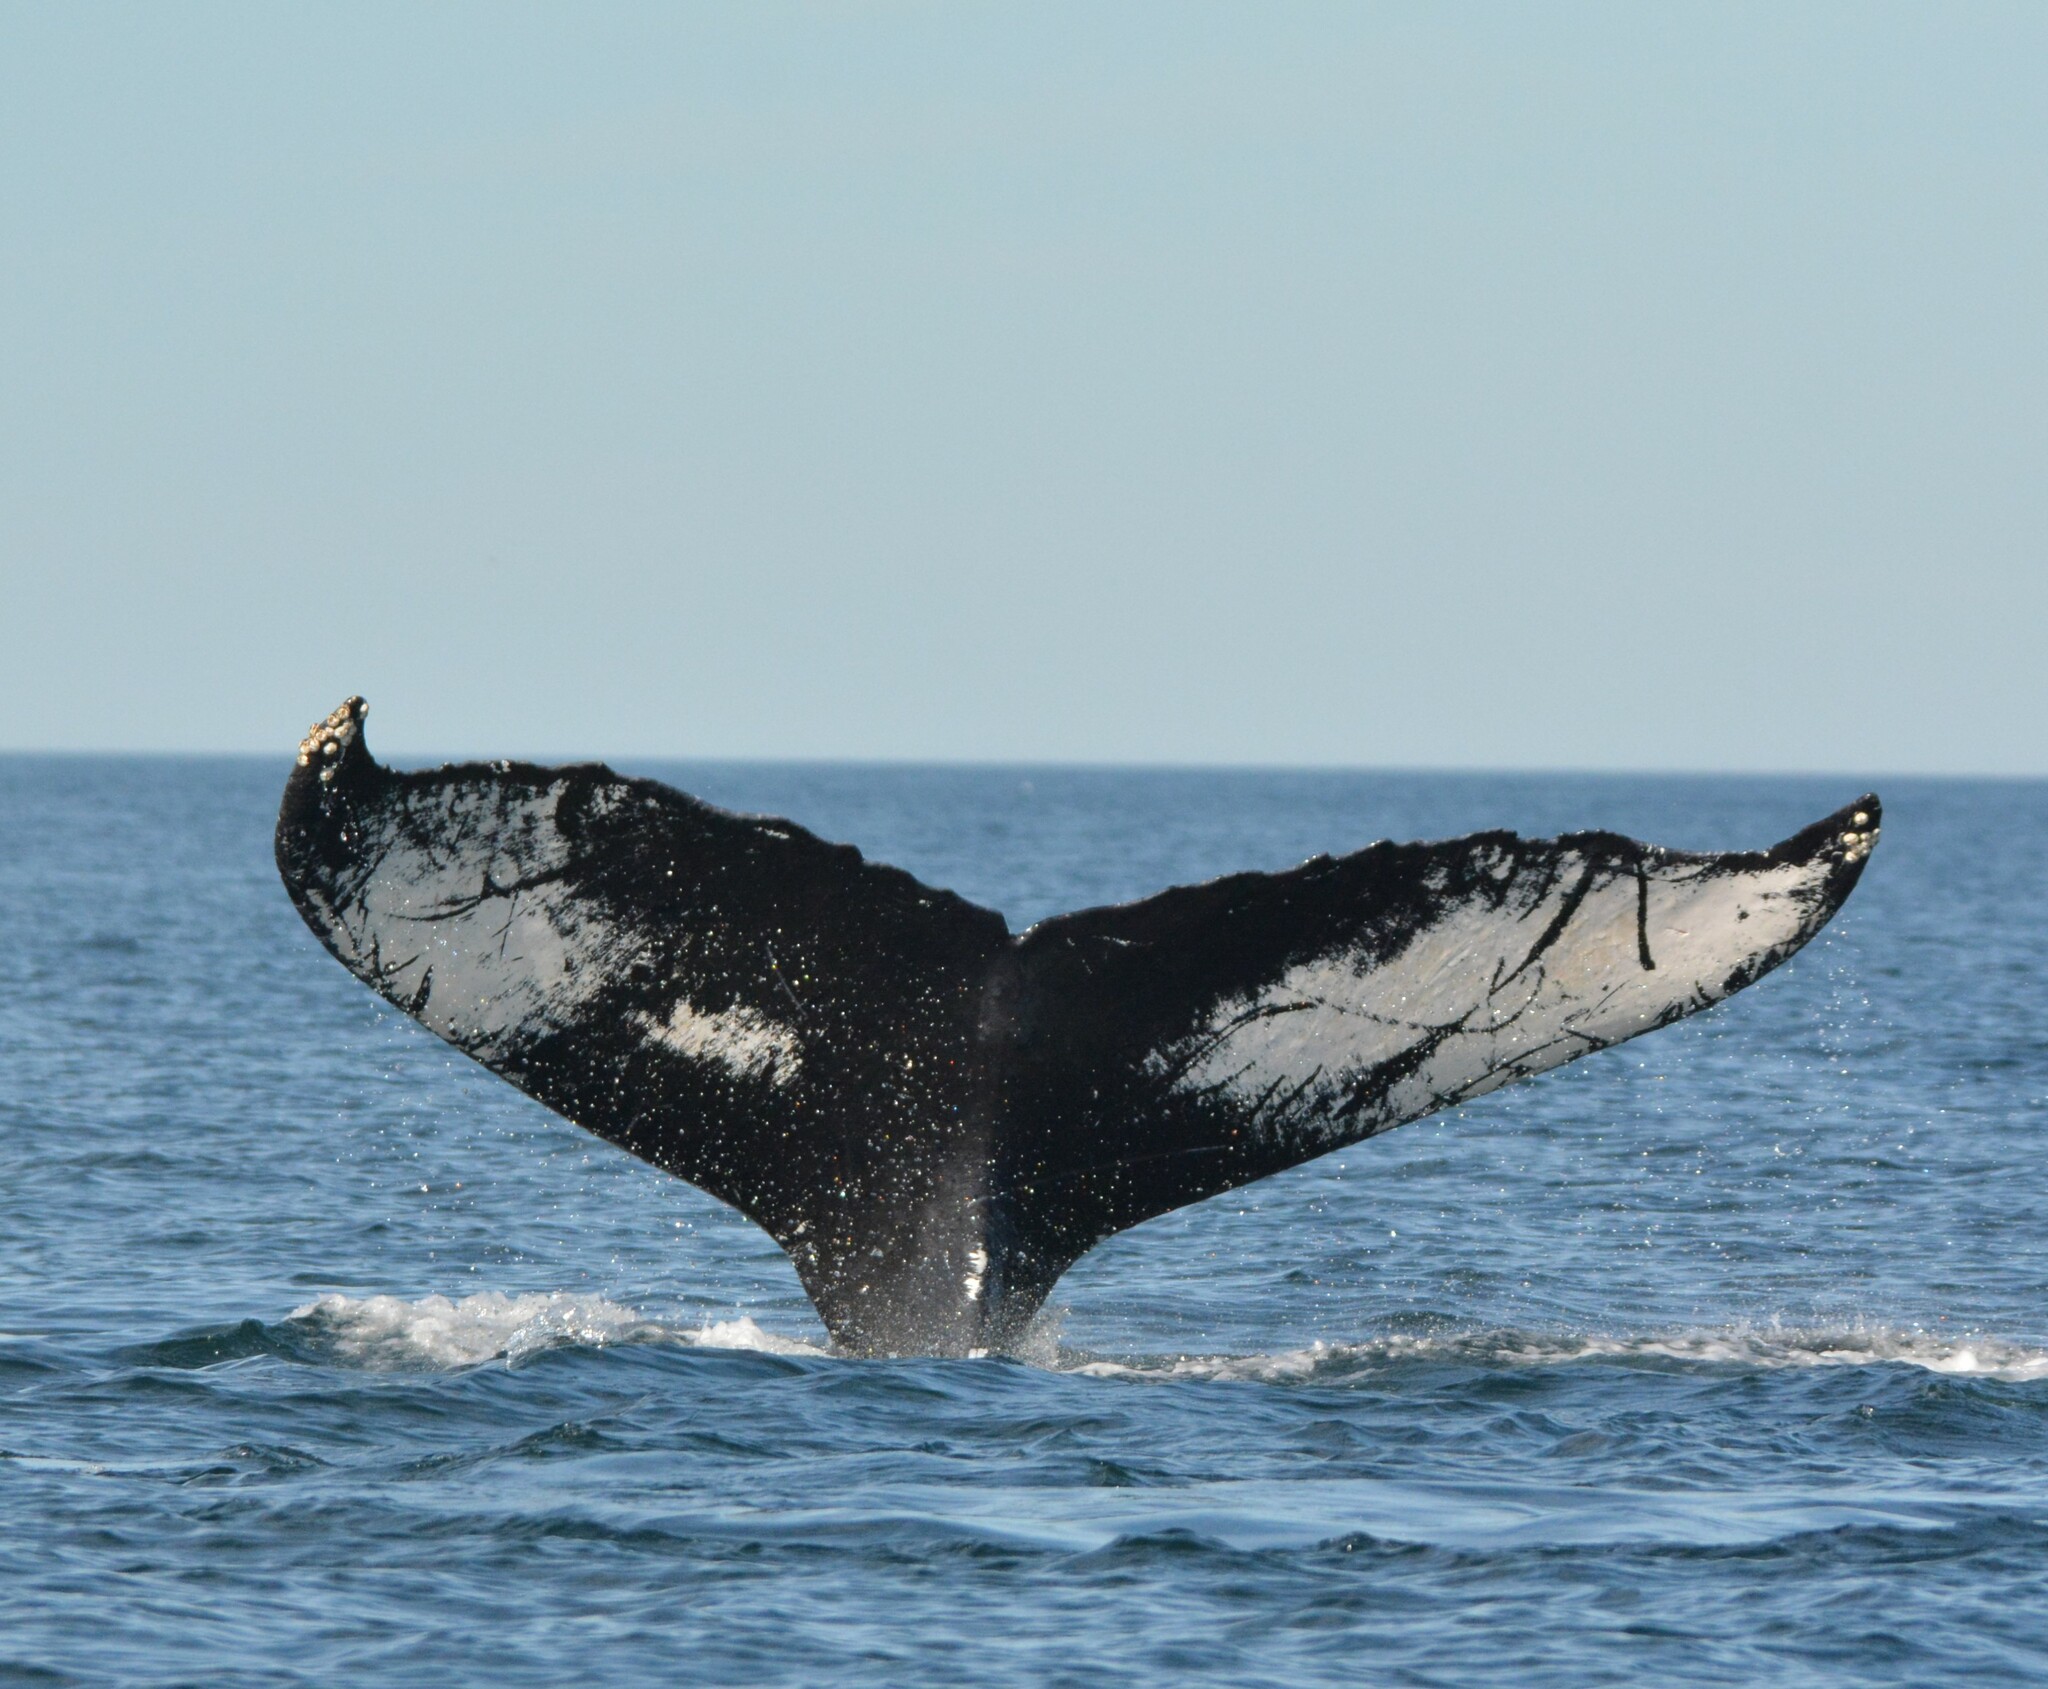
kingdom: Animalia
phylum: Chordata
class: Mammalia
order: Cetacea
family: Balaenopteridae
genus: Megaptera
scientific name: Megaptera novaeangliae
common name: Humpback whale
